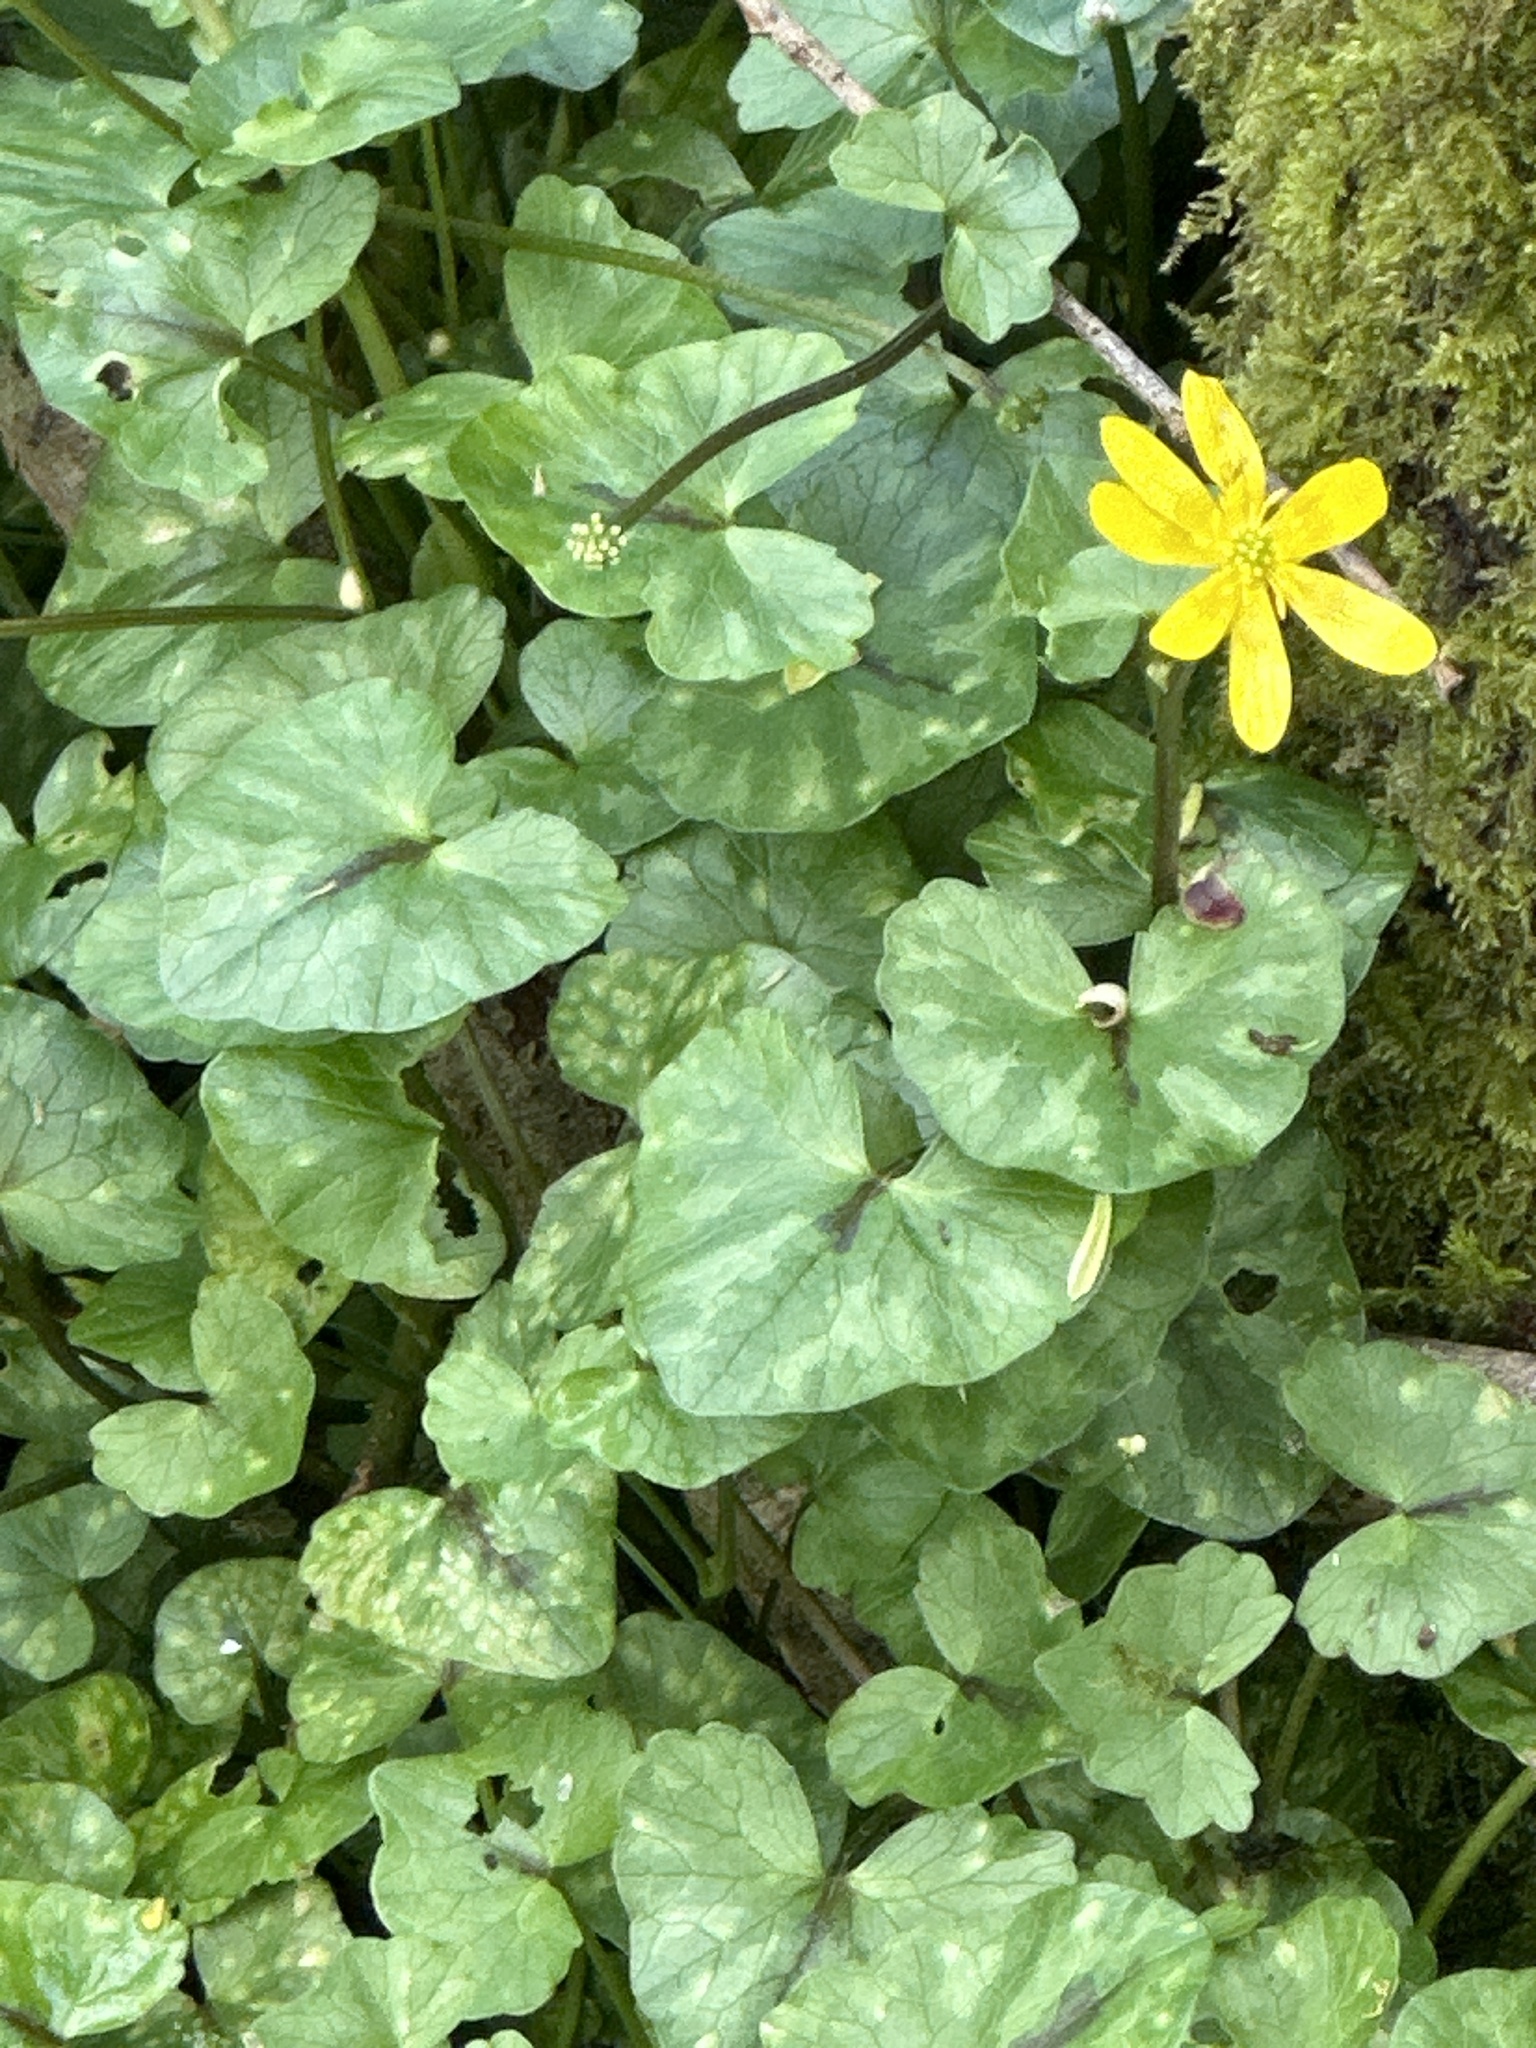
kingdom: Plantae
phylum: Tracheophyta
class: Magnoliopsida
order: Ranunculales
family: Ranunculaceae
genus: Ficaria
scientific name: Ficaria verna
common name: Lesser celandine
